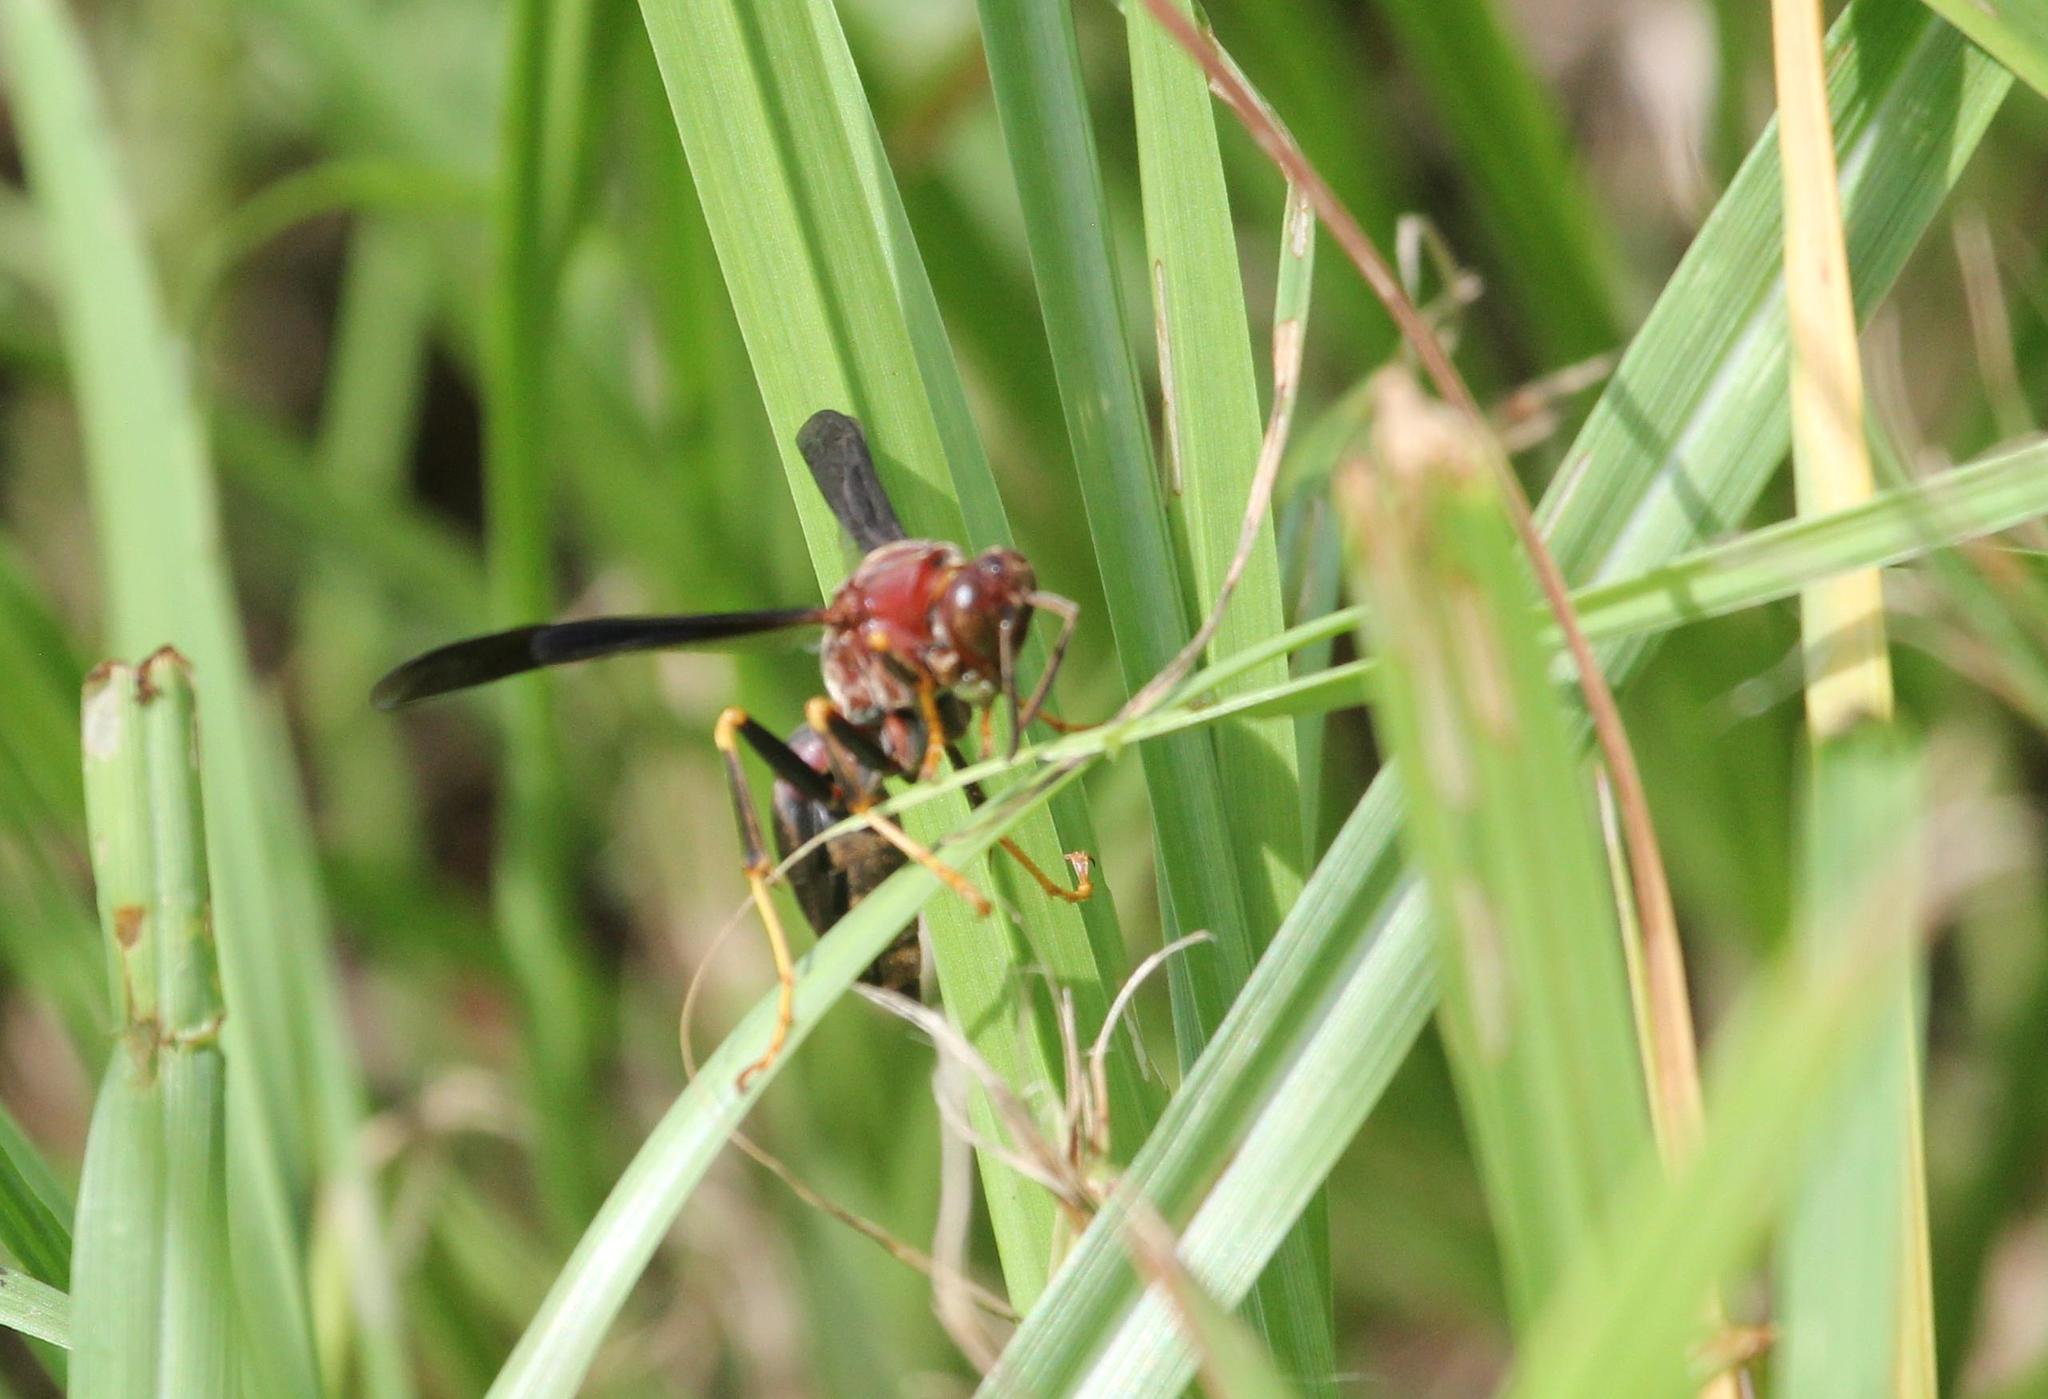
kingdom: Animalia
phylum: Arthropoda
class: Insecta
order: Hymenoptera
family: Eumenidae
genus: Polistes
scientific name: Polistes metricus
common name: Metric paper wasp
